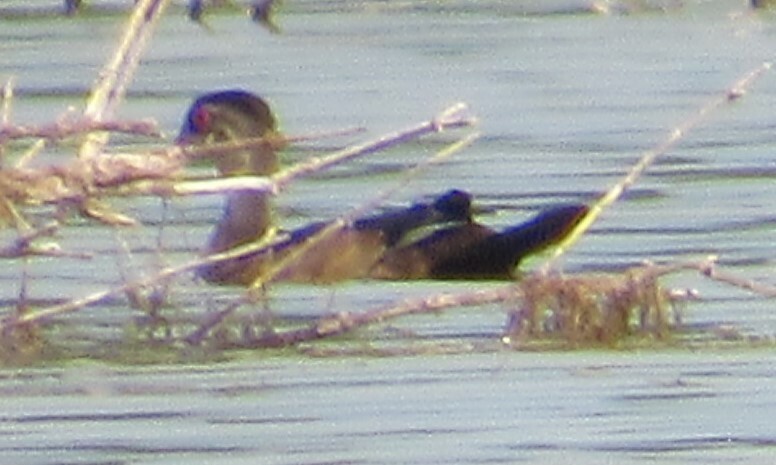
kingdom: Animalia
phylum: Chordata
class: Aves
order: Anseriformes
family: Anatidae
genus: Aix
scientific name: Aix sponsa
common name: Wood duck
